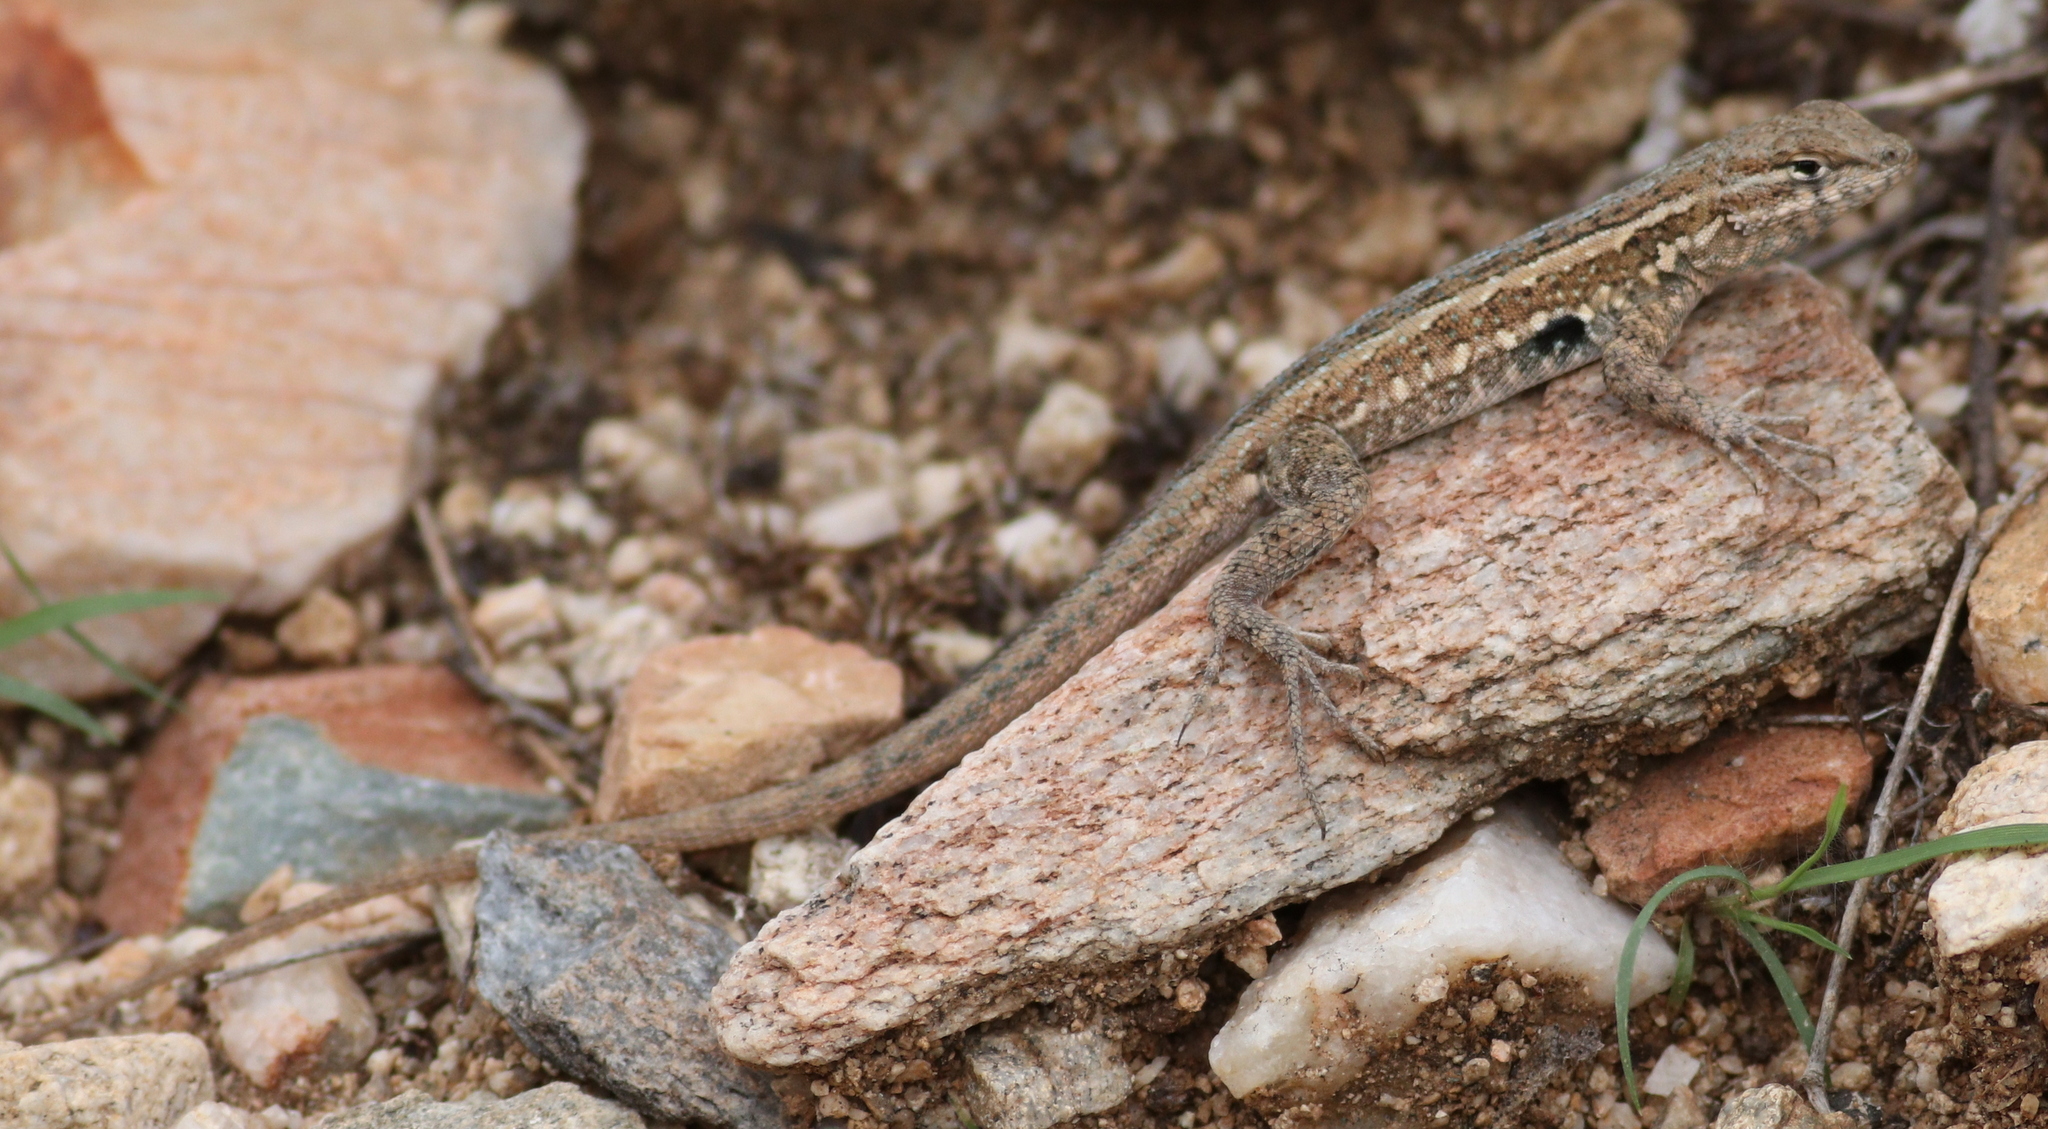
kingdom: Animalia
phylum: Chordata
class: Squamata
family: Phrynosomatidae
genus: Uta
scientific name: Uta stansburiana
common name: Side-blotched lizard
